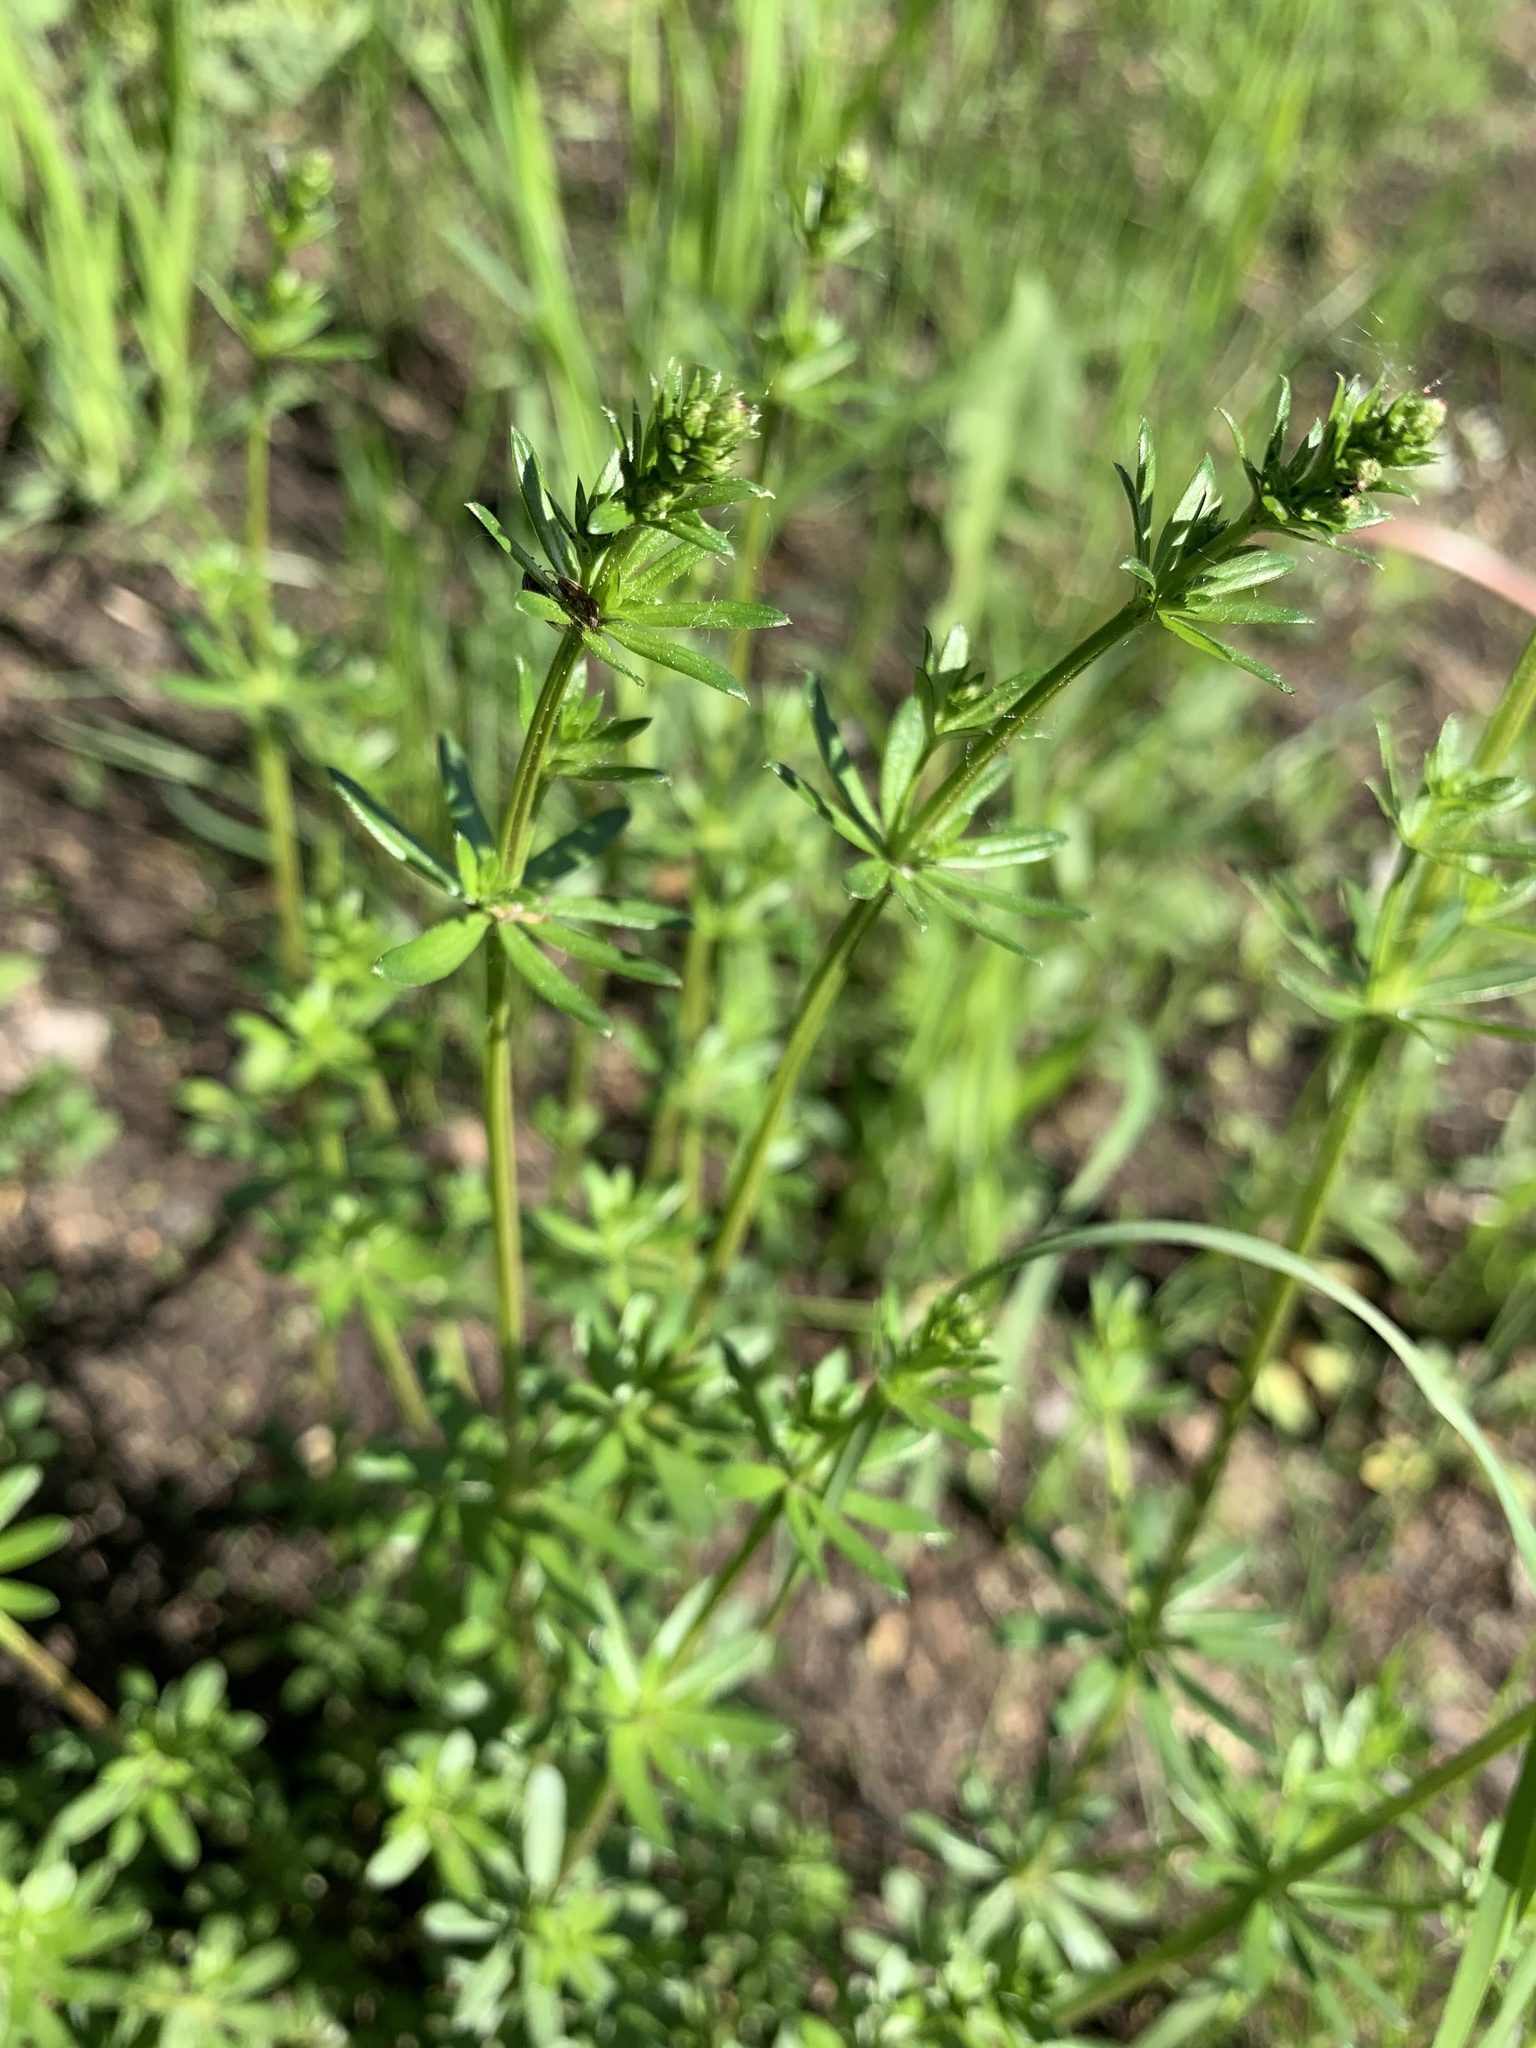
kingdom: Plantae
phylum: Tracheophyta
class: Magnoliopsida
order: Gentianales
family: Rubiaceae
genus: Galium
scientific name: Galium mollugo
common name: Hedge bedstraw
